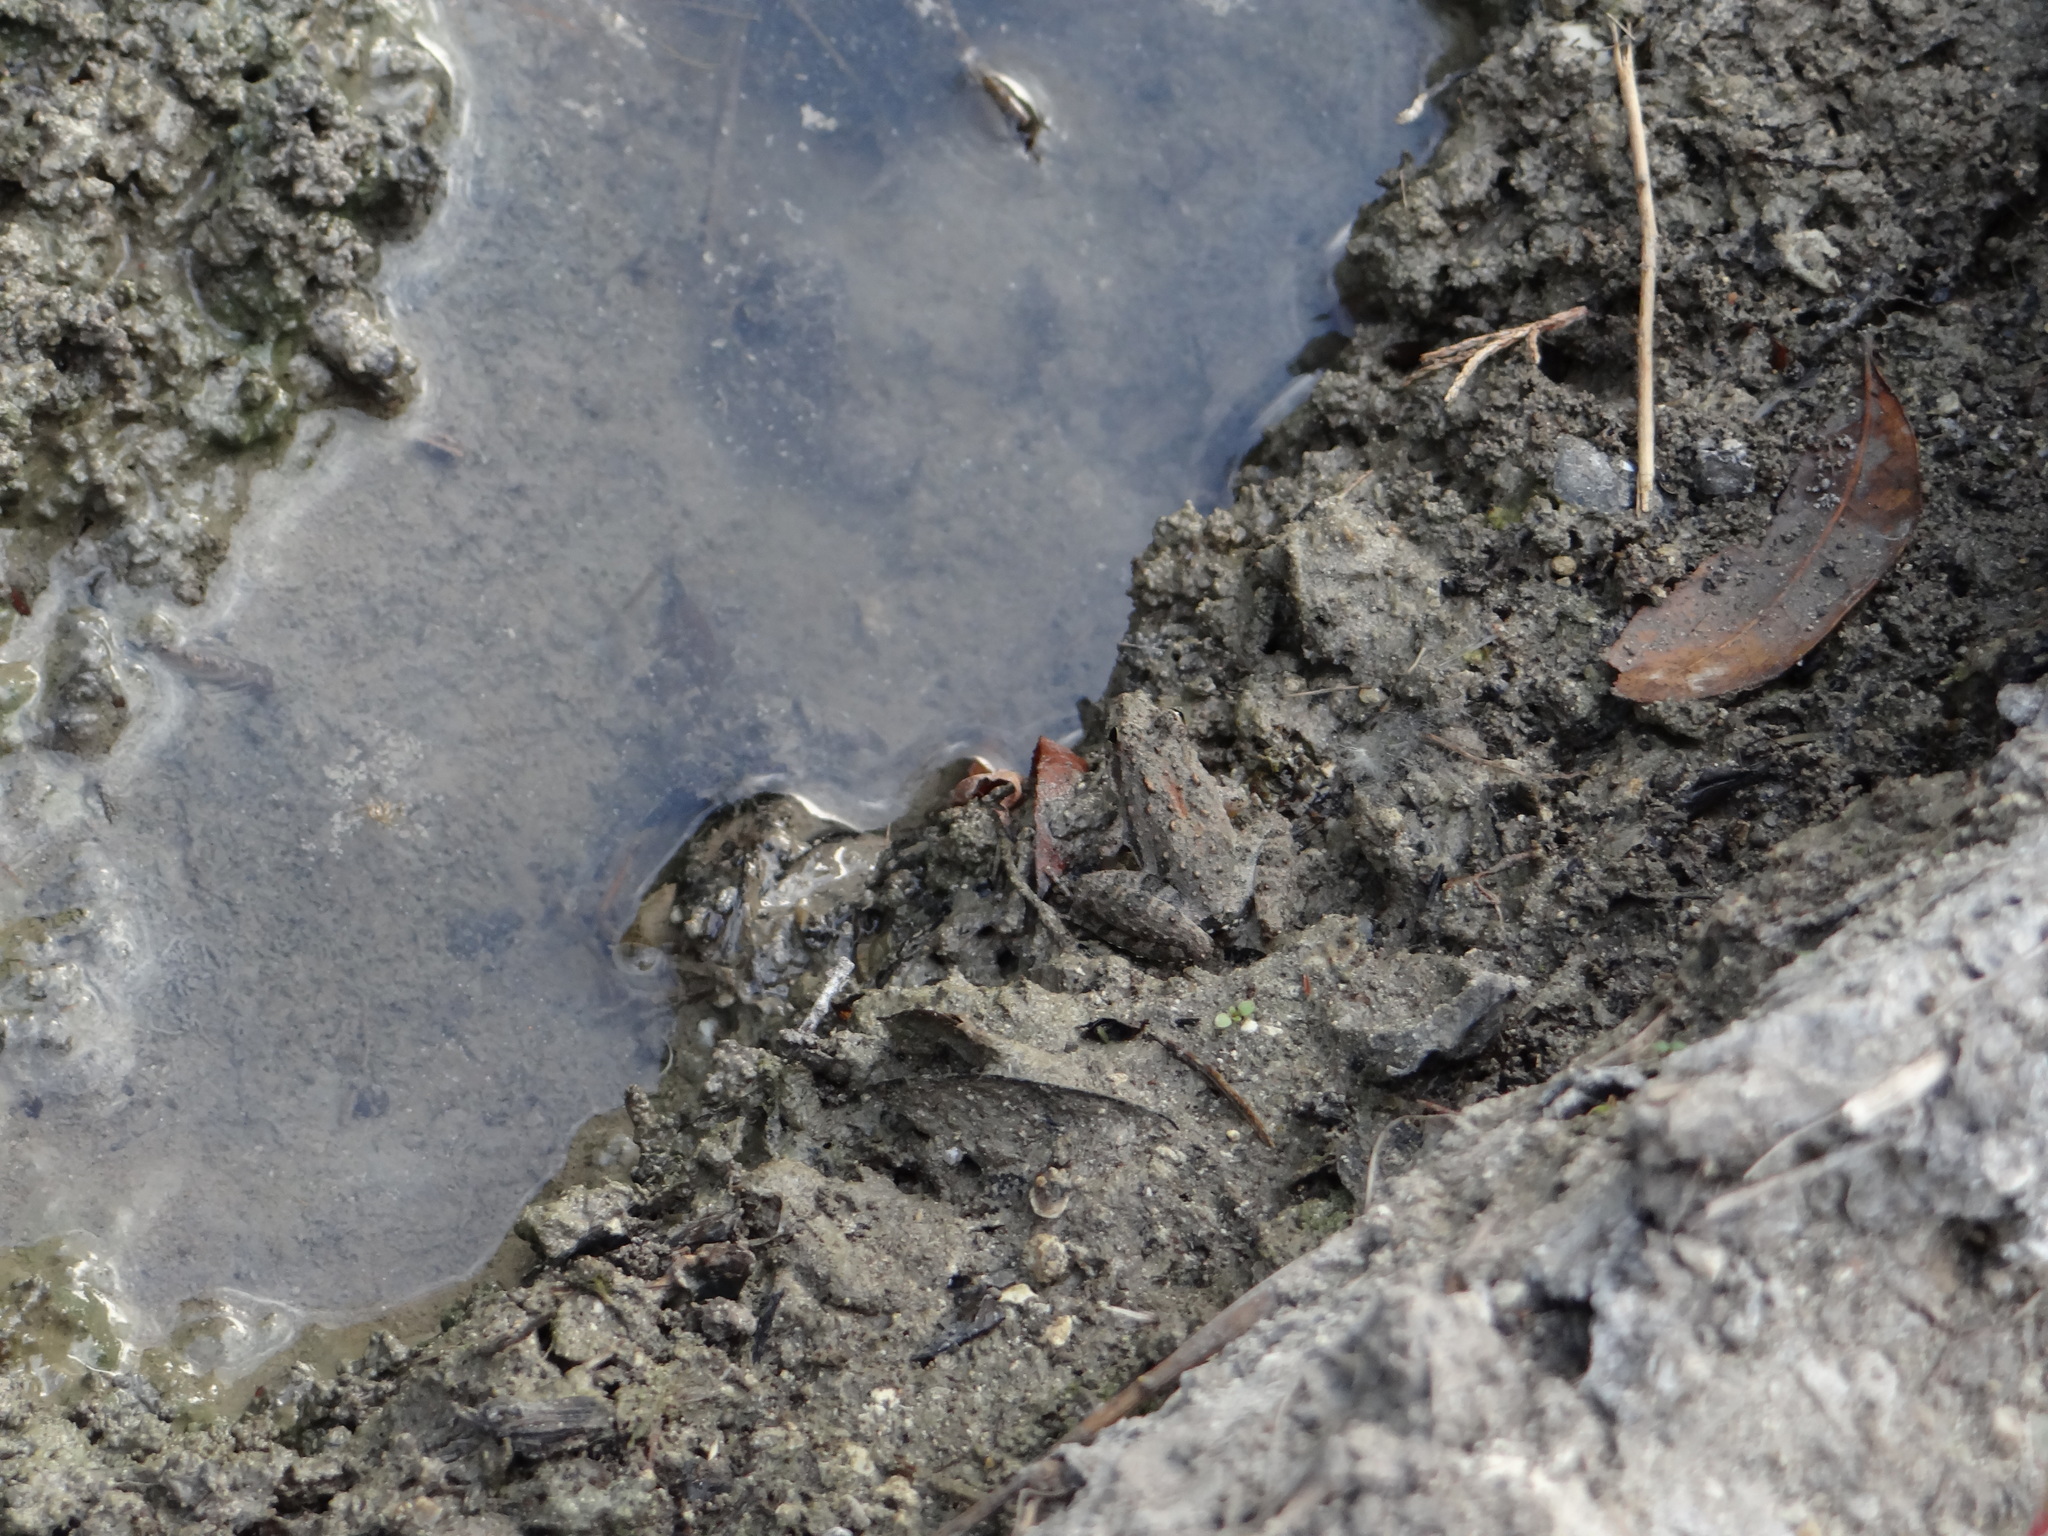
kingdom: Animalia
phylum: Chordata
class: Amphibia
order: Anura
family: Hylidae
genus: Acris
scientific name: Acris blanchardi
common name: Blanchard's cricket frog
